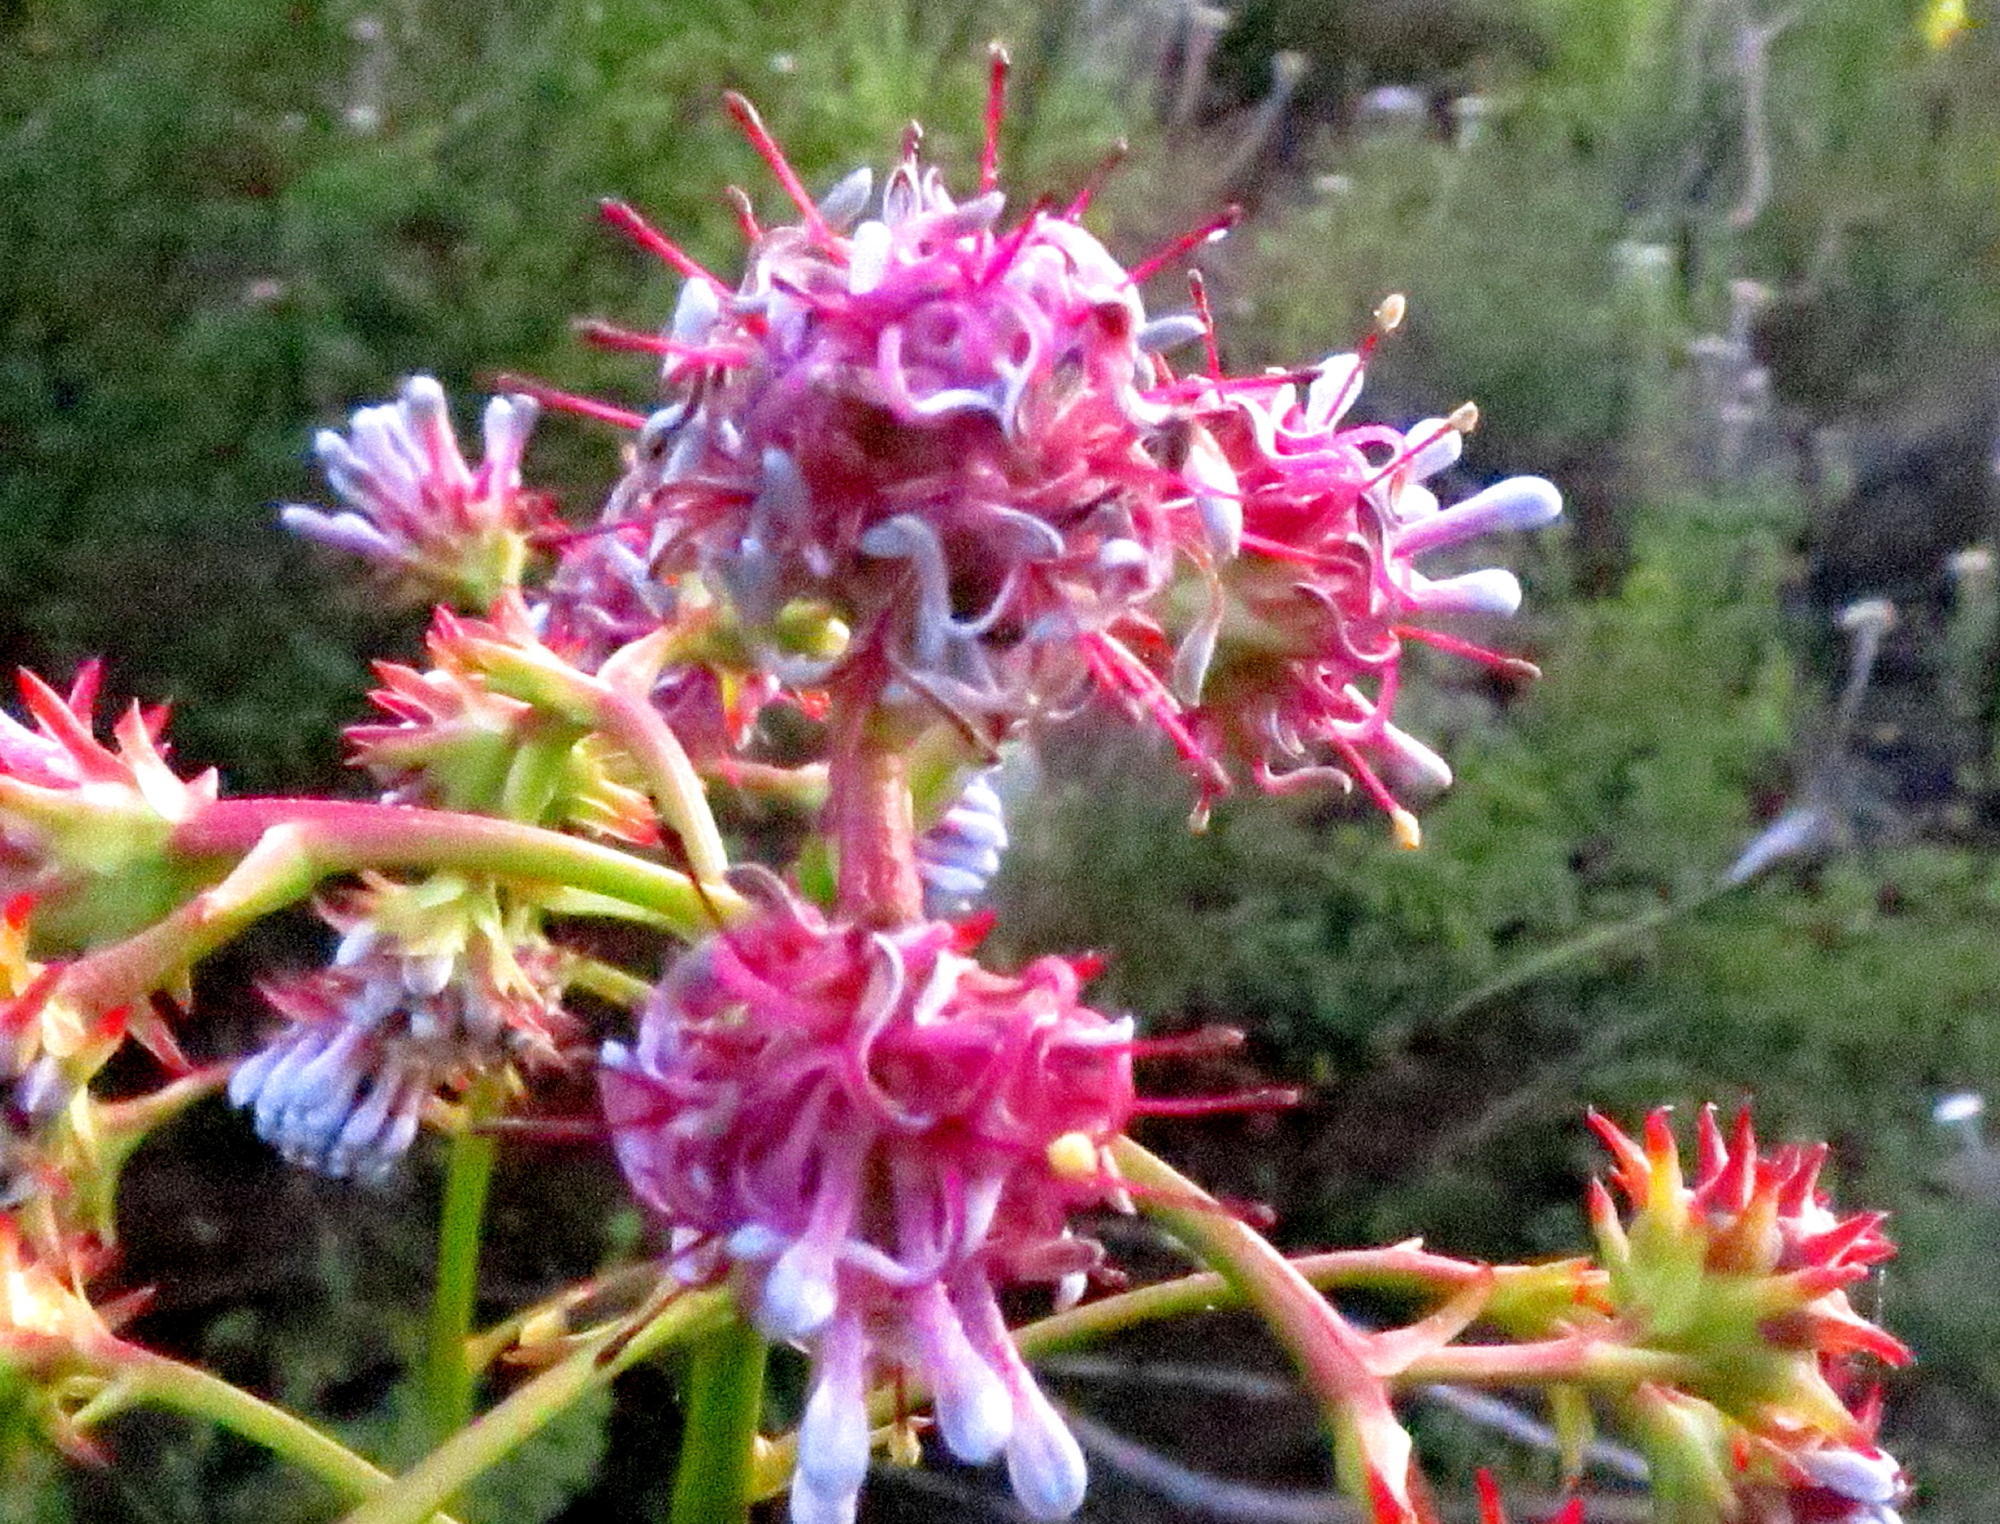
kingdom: Plantae
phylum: Tracheophyta
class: Magnoliopsida
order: Proteales
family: Proteaceae
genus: Serruria
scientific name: Serruria elongata
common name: Long-stalk spiderhead
